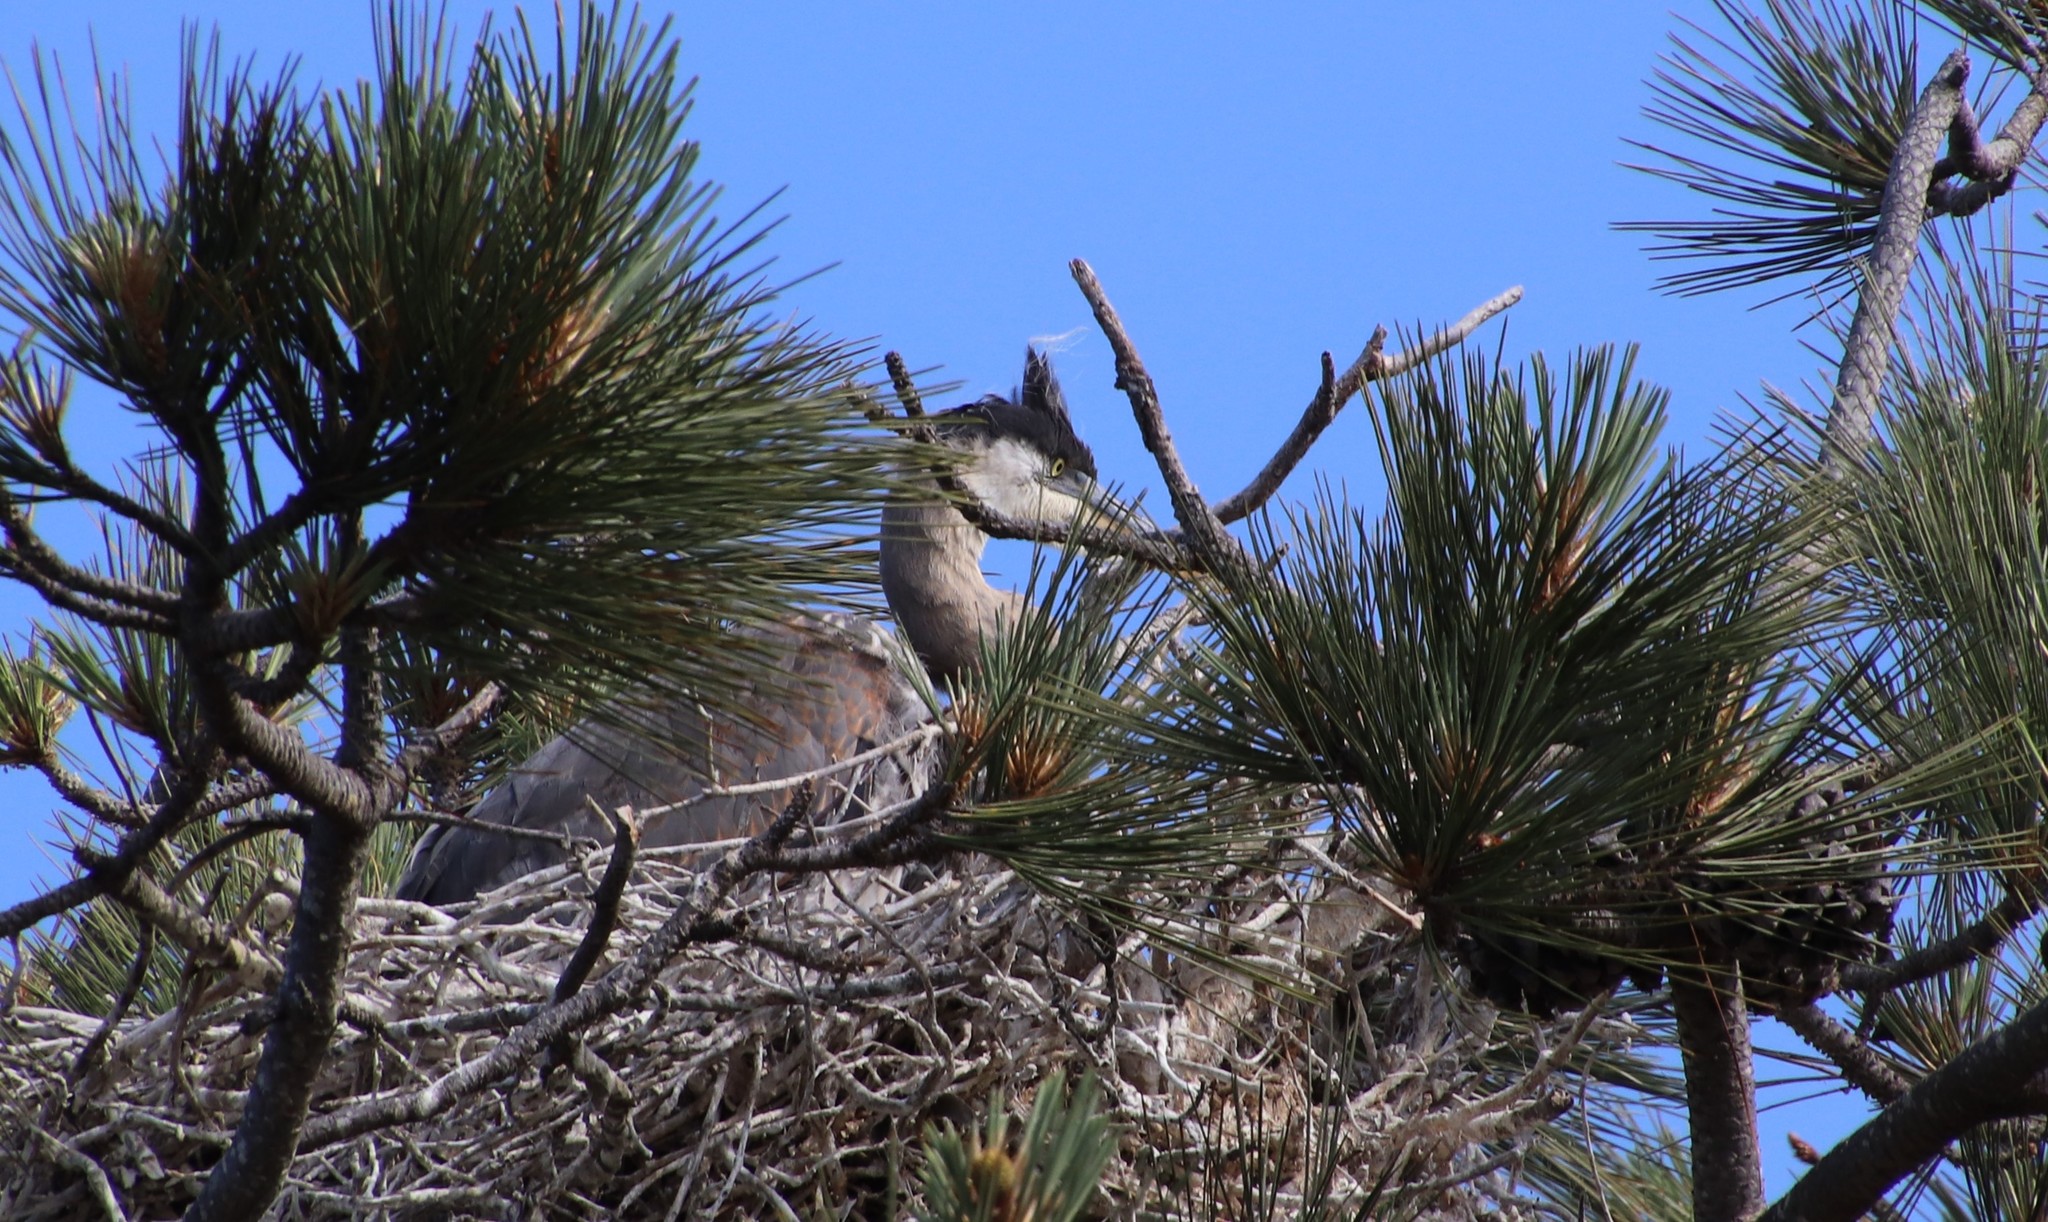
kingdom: Animalia
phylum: Chordata
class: Aves
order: Pelecaniformes
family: Ardeidae
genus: Ardea
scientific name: Ardea herodias
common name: Great blue heron
